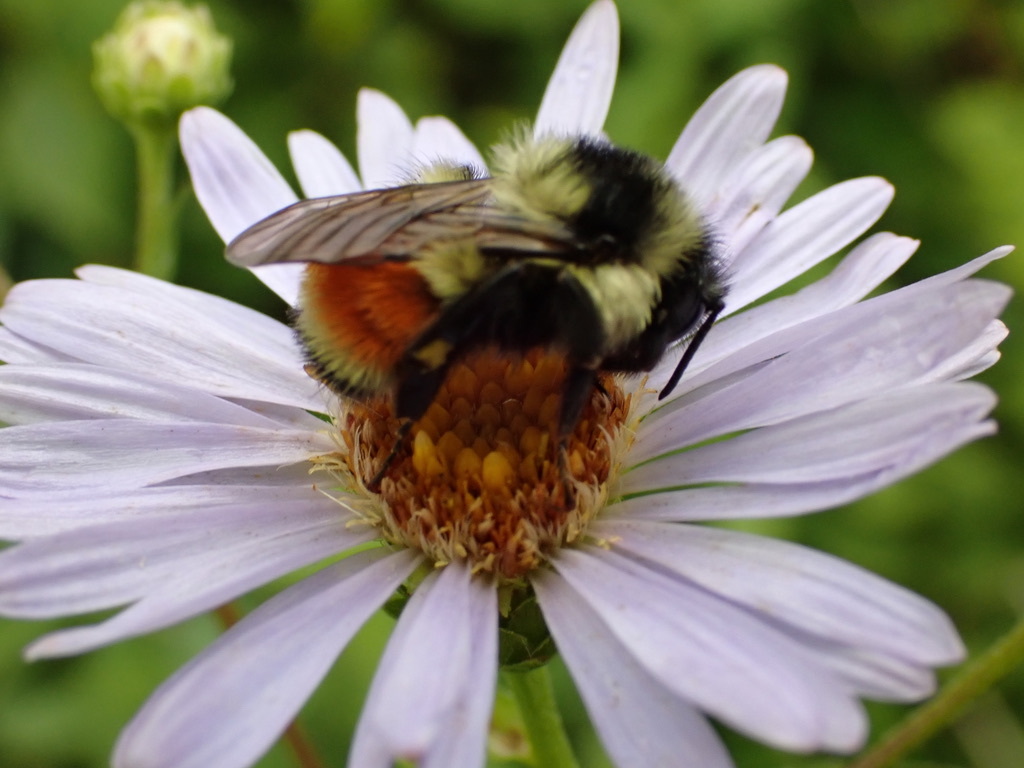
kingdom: Animalia
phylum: Arthropoda
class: Insecta
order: Hymenoptera
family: Apidae
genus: Bombus
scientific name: Bombus ternarius
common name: Tri-colored bumble bee
